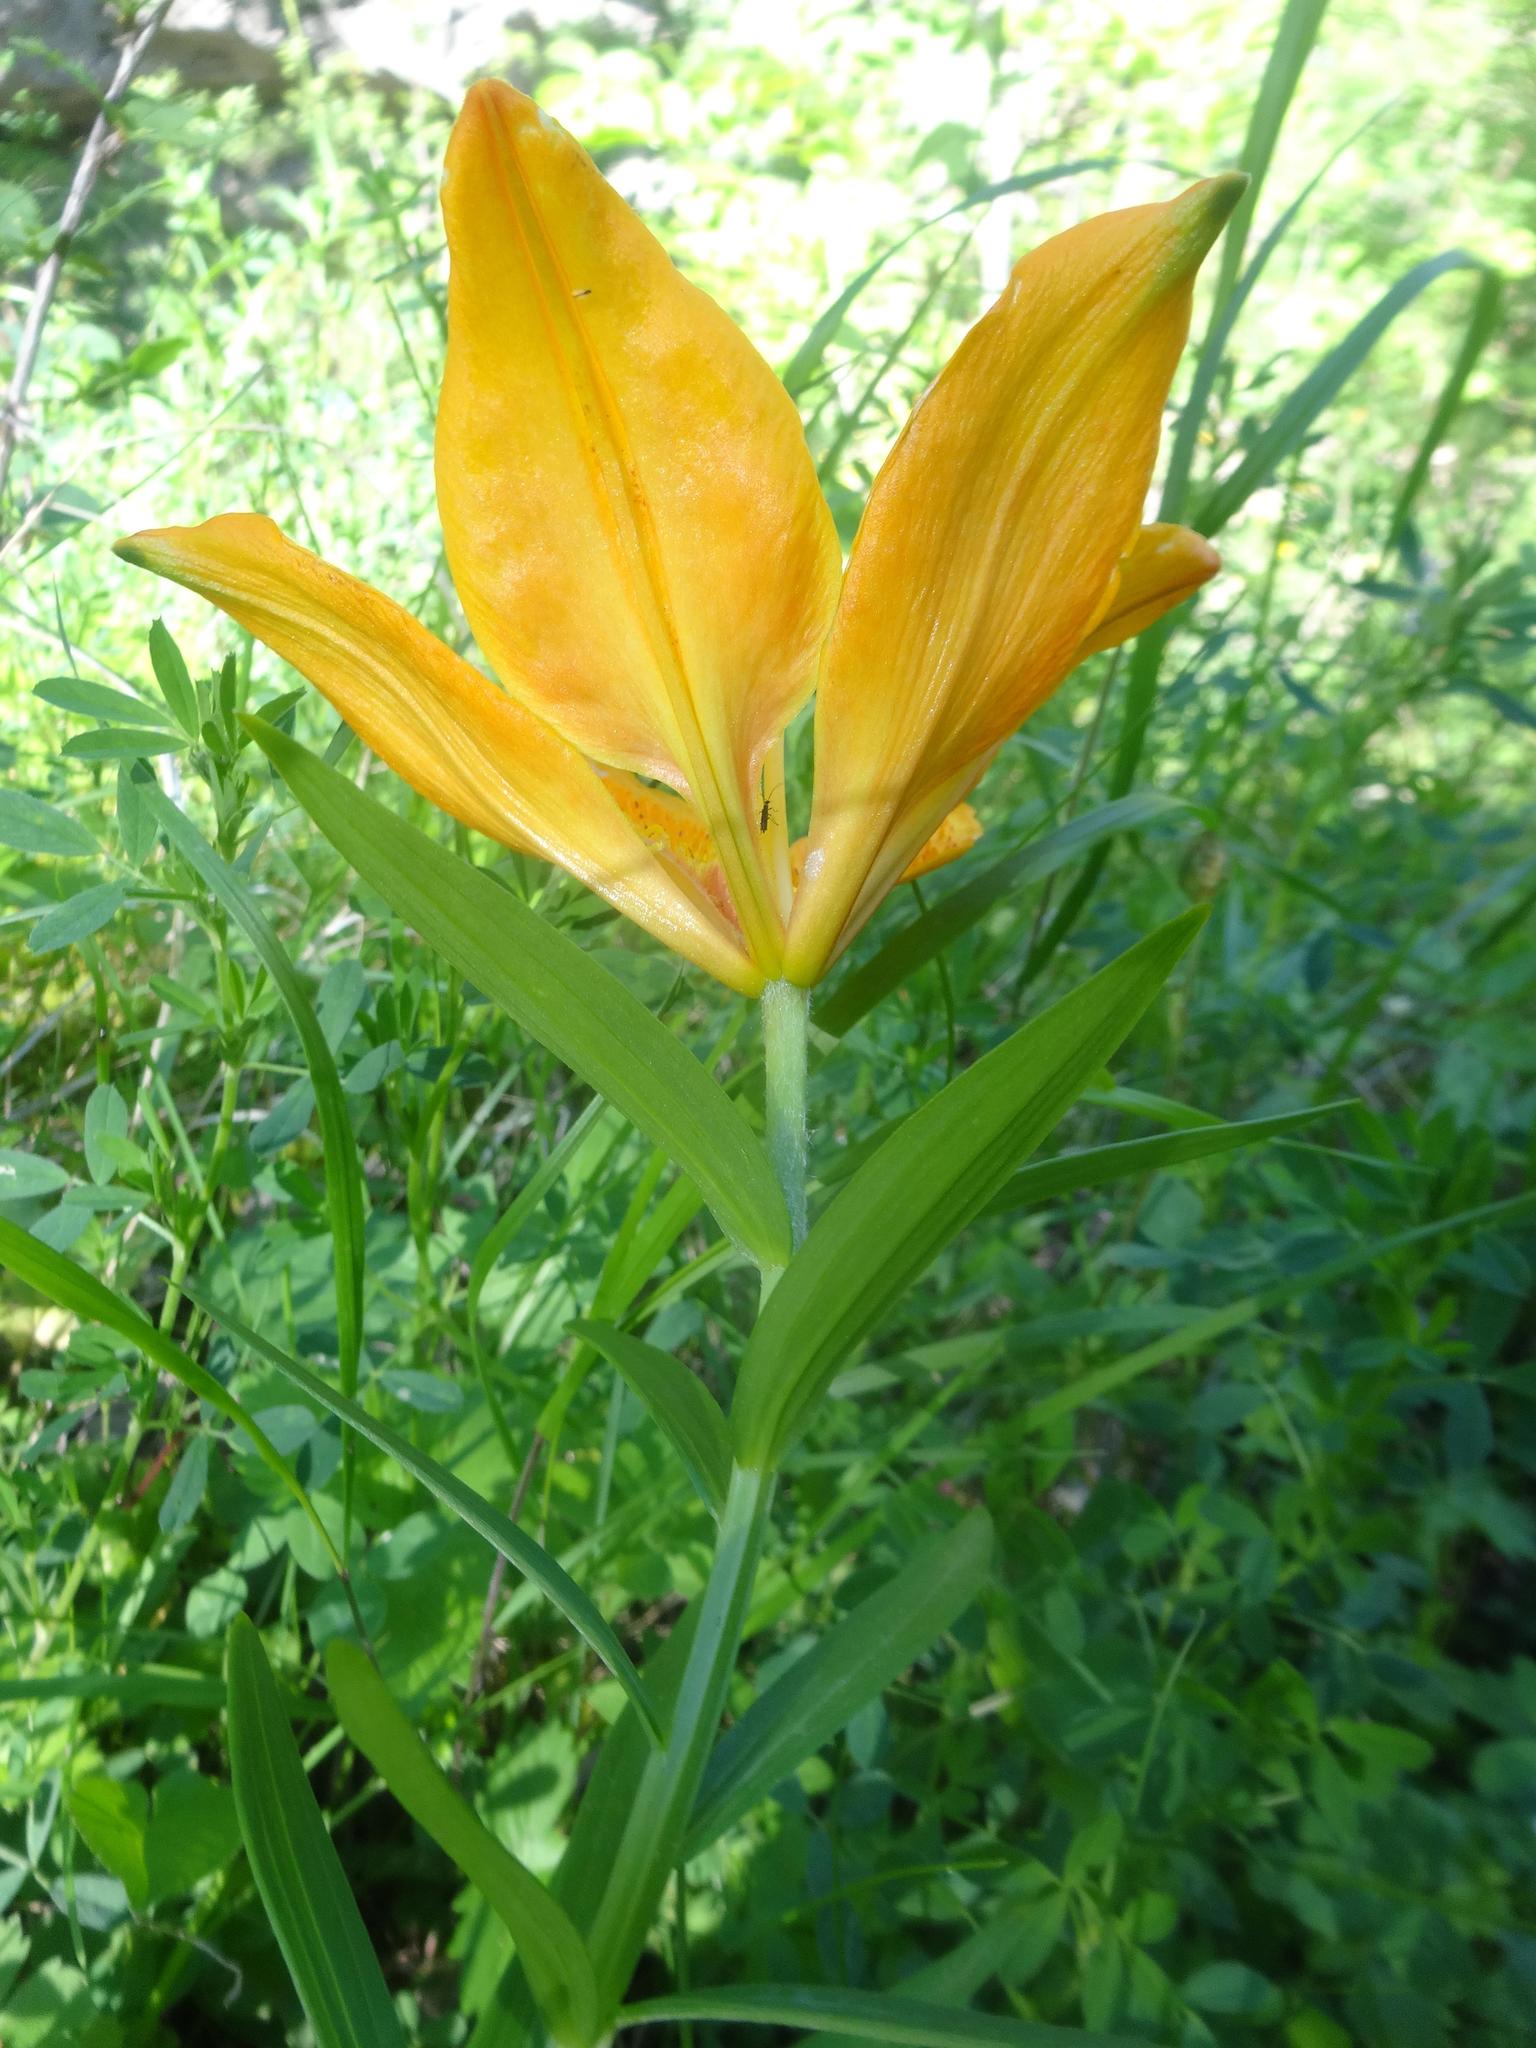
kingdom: Plantae
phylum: Tracheophyta
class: Liliopsida
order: Liliales
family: Liliaceae
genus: Lilium
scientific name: Lilium bulbiferum
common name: Orange lily
